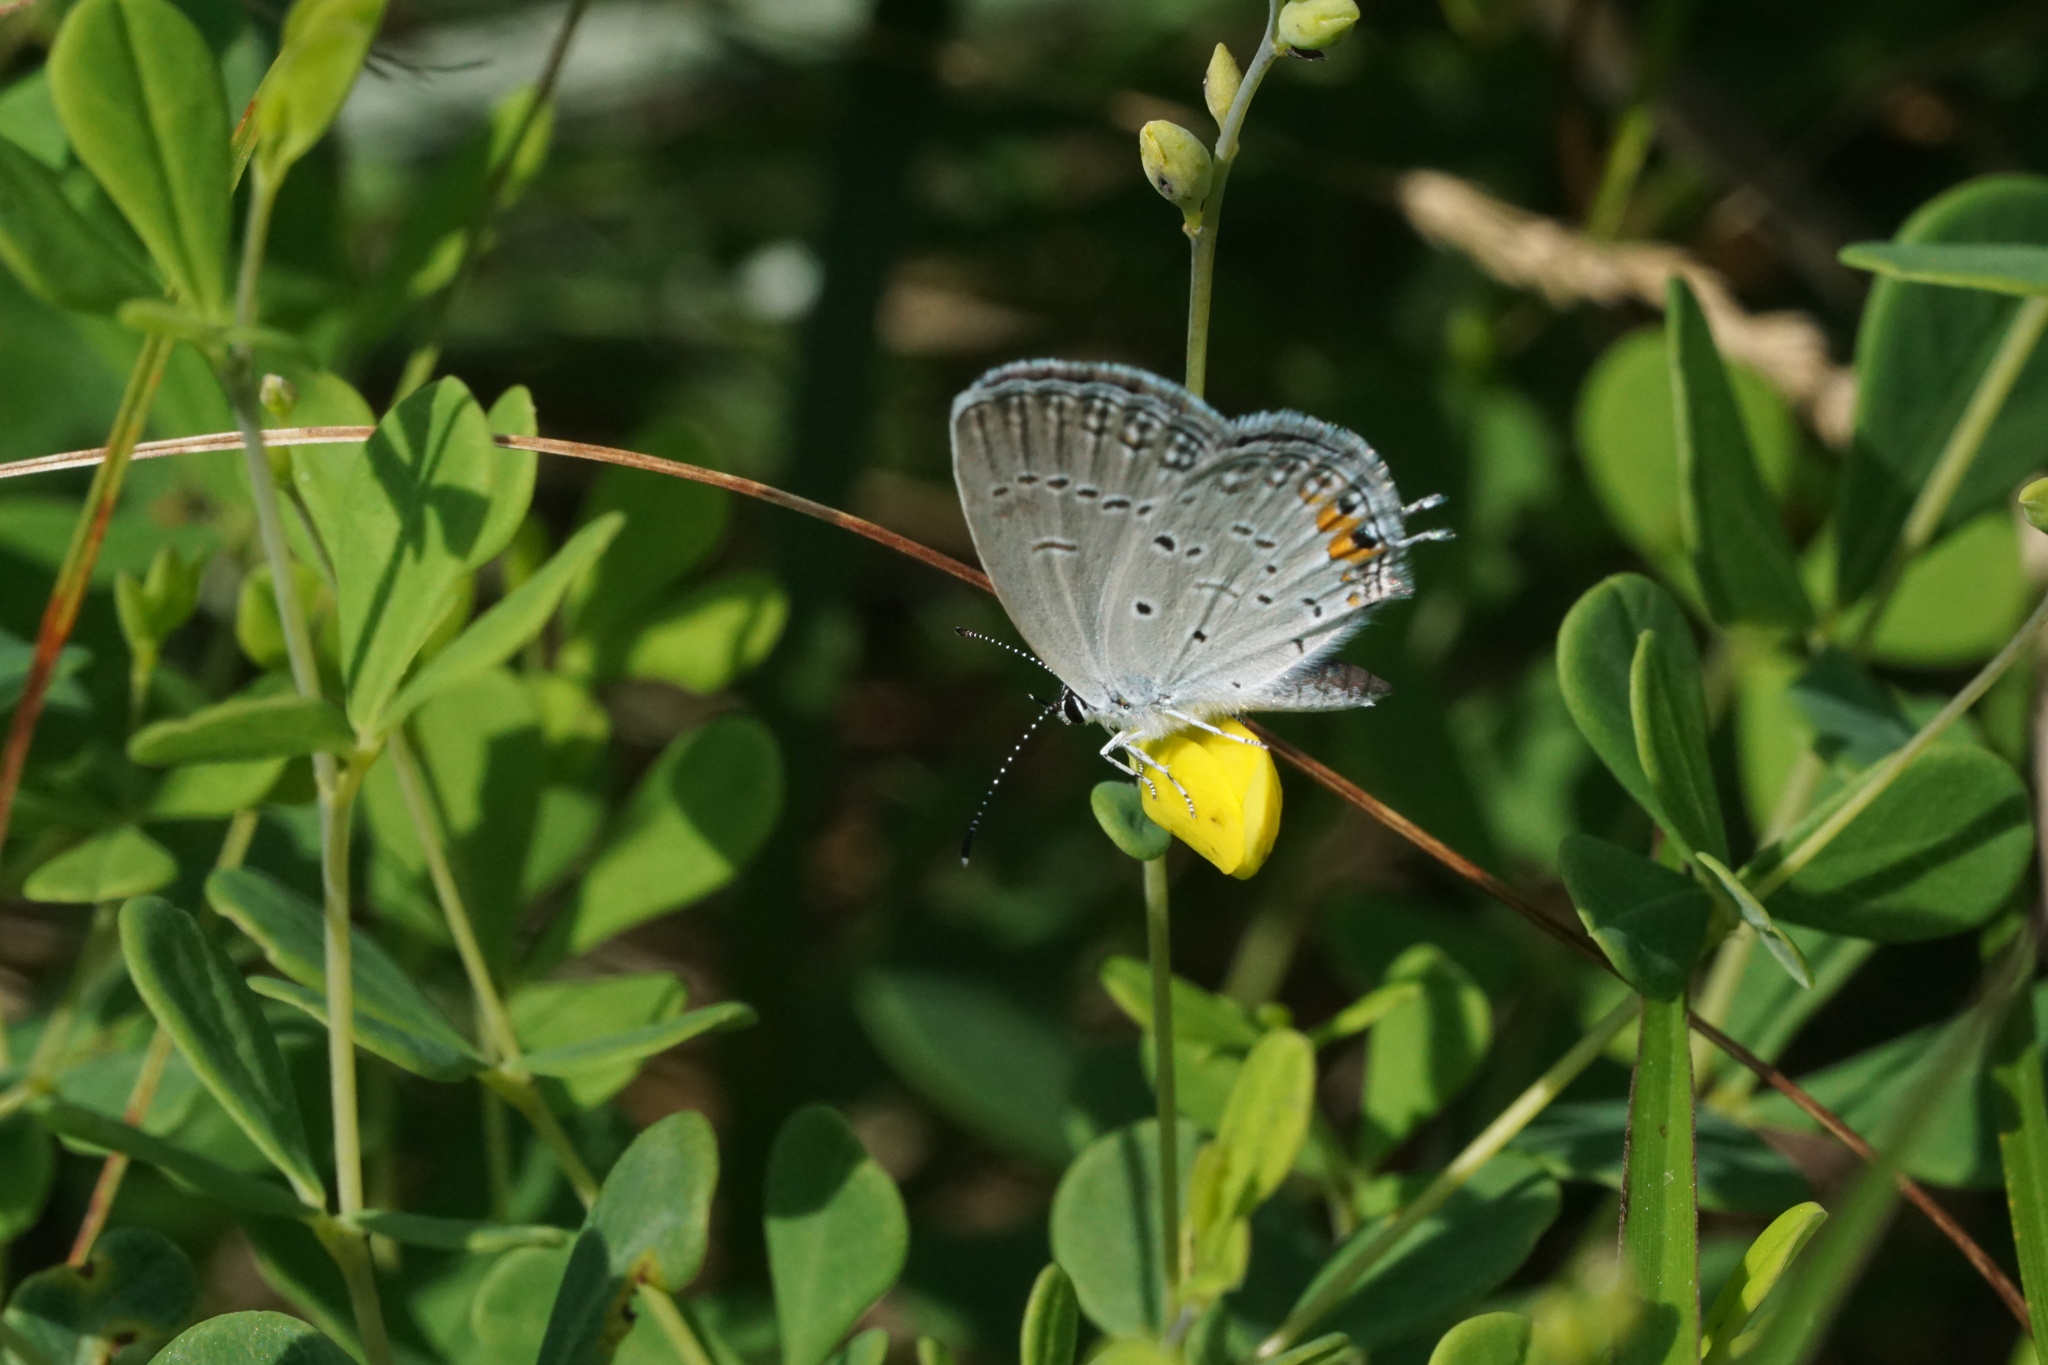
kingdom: Animalia
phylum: Arthropoda
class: Insecta
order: Lepidoptera
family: Lycaenidae
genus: Elkalyce
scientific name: Elkalyce comyntas
